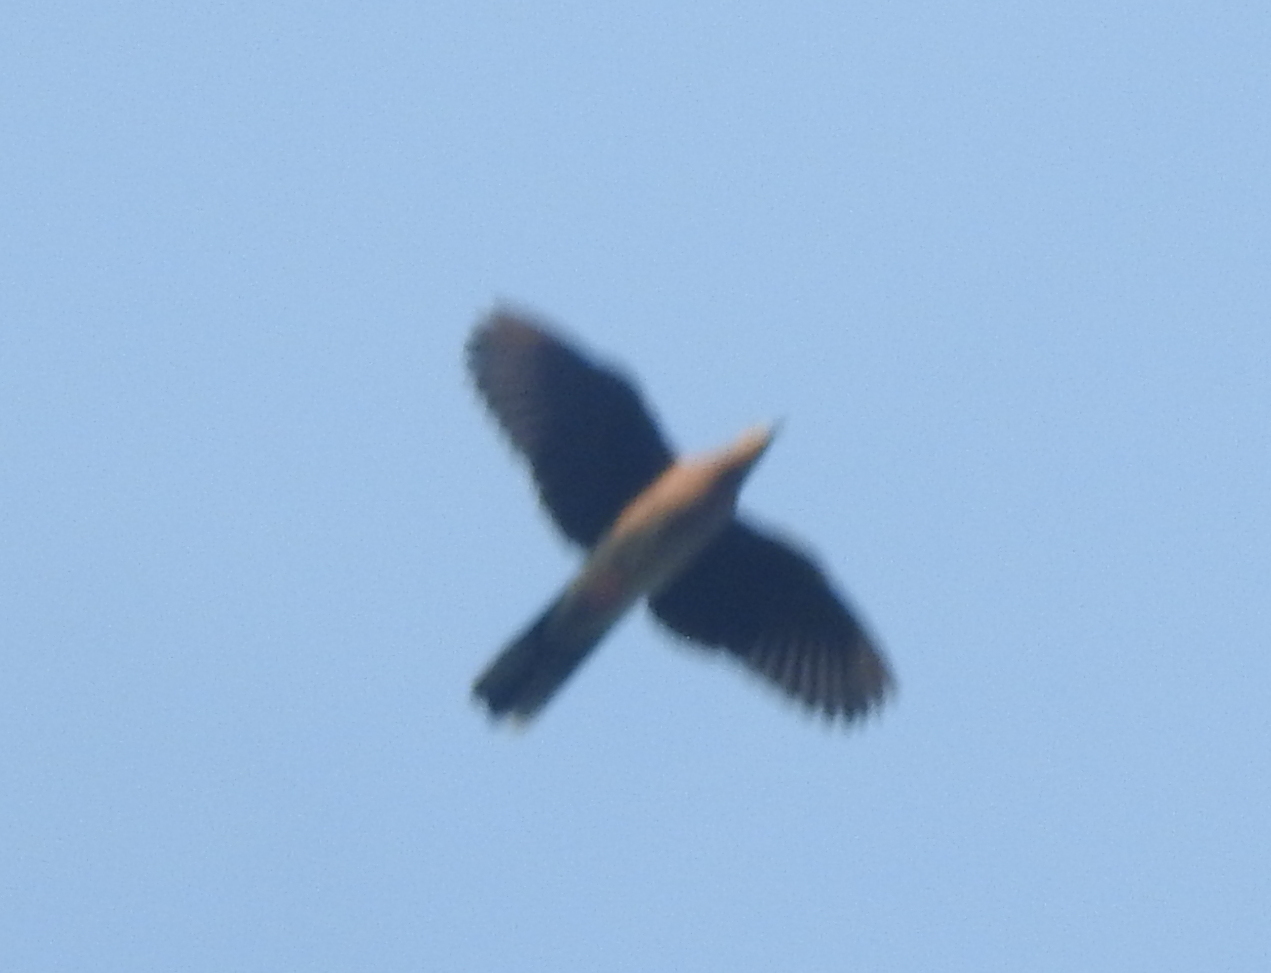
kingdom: Animalia
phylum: Chordata
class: Aves
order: Columbiformes
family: Columbidae
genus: Spilopelia
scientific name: Spilopelia chinensis
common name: Spotted dove
